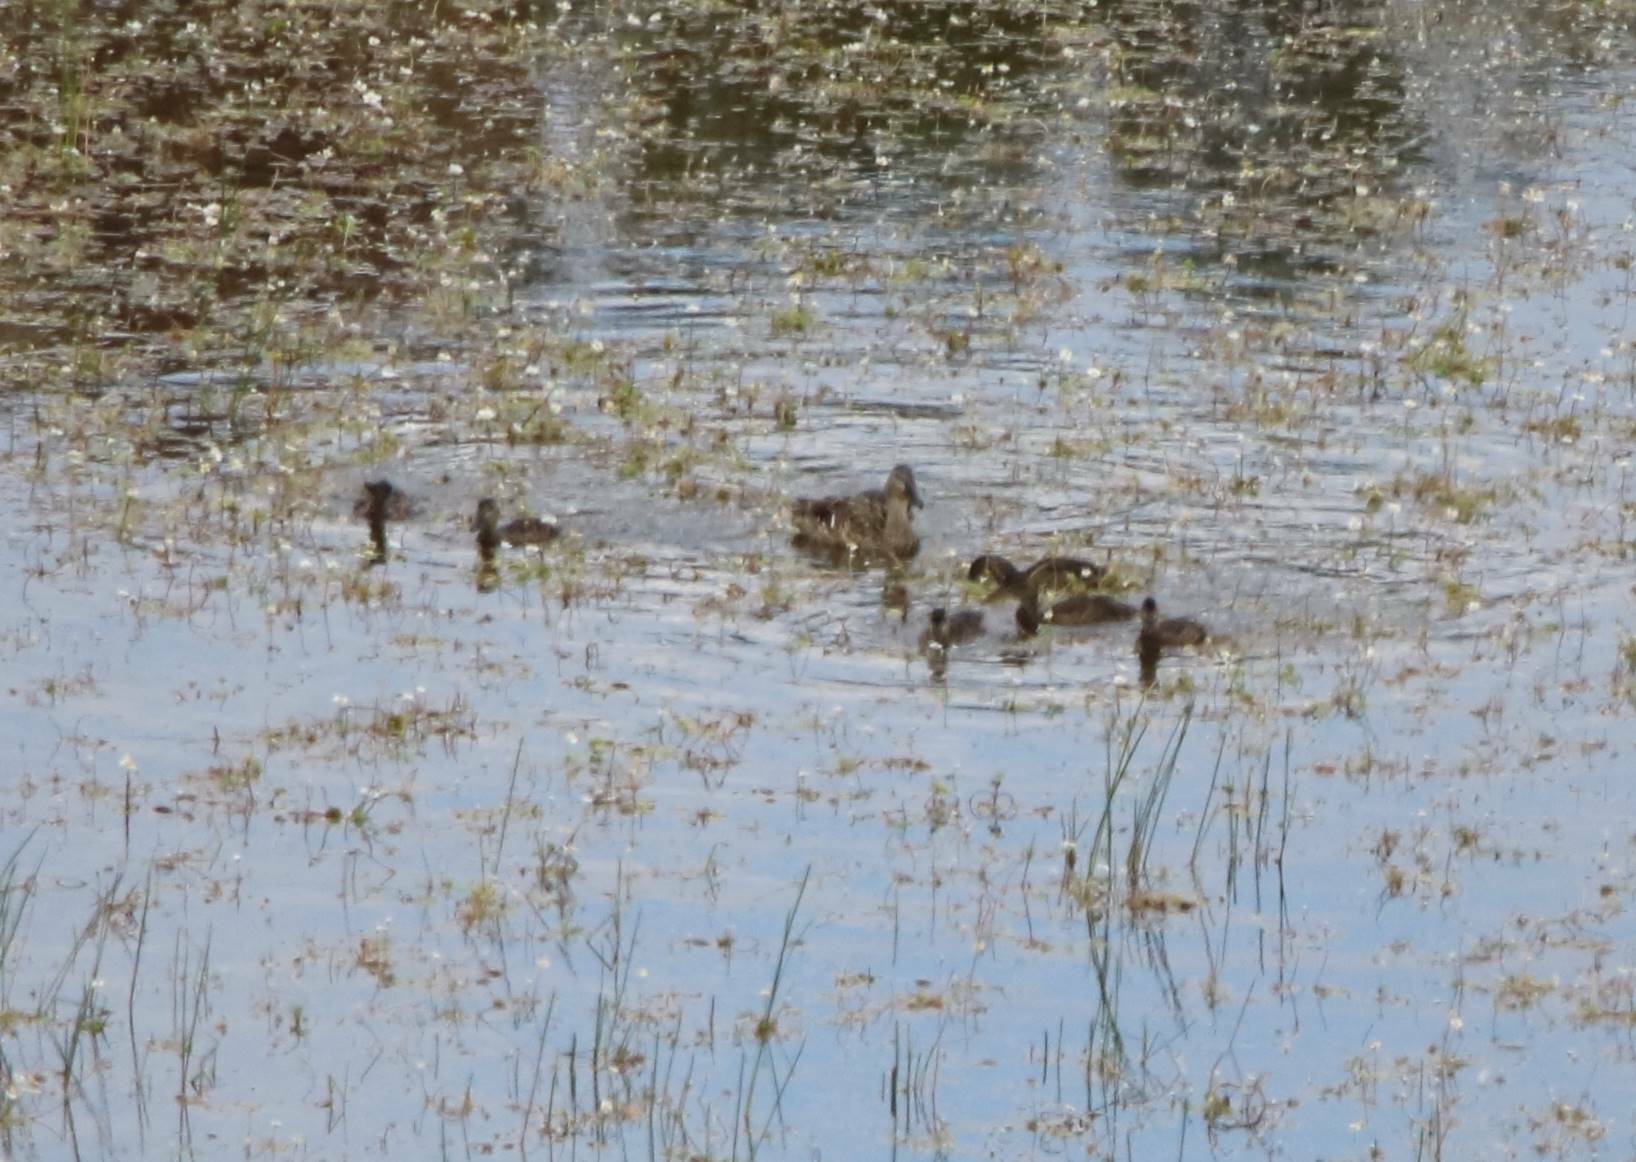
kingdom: Animalia
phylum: Chordata
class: Aves
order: Anseriformes
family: Anatidae
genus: Anas
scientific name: Anas platyrhynchos
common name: Mallard
